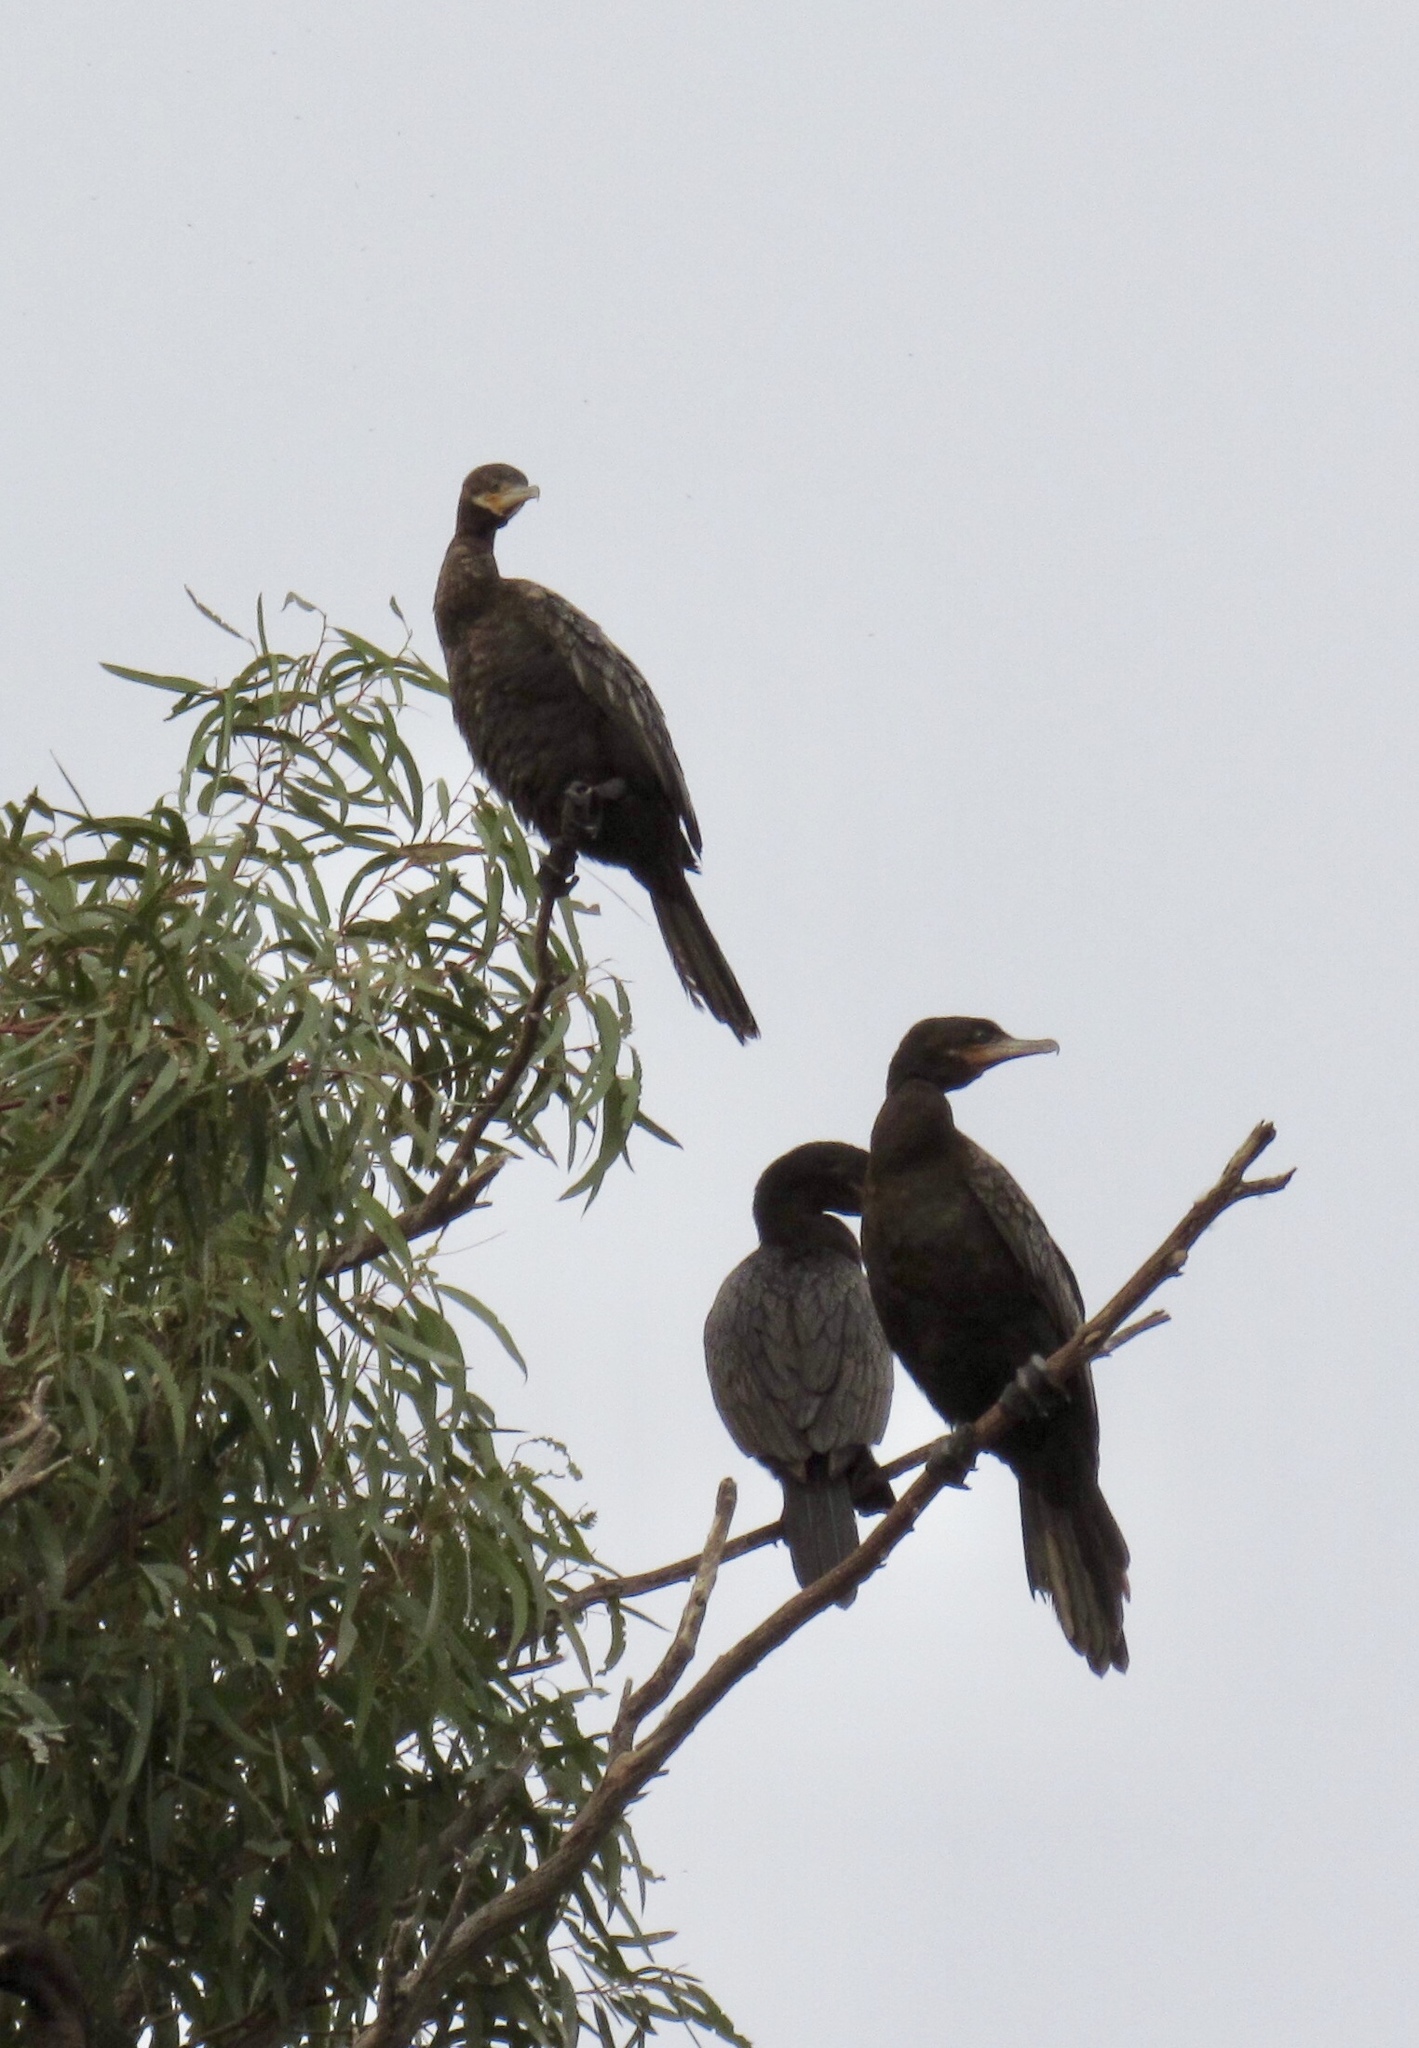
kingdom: Animalia
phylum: Chordata
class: Aves
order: Suliformes
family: Phalacrocoracidae
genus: Phalacrocorax
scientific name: Phalacrocorax brasilianus
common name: Neotropic cormorant
